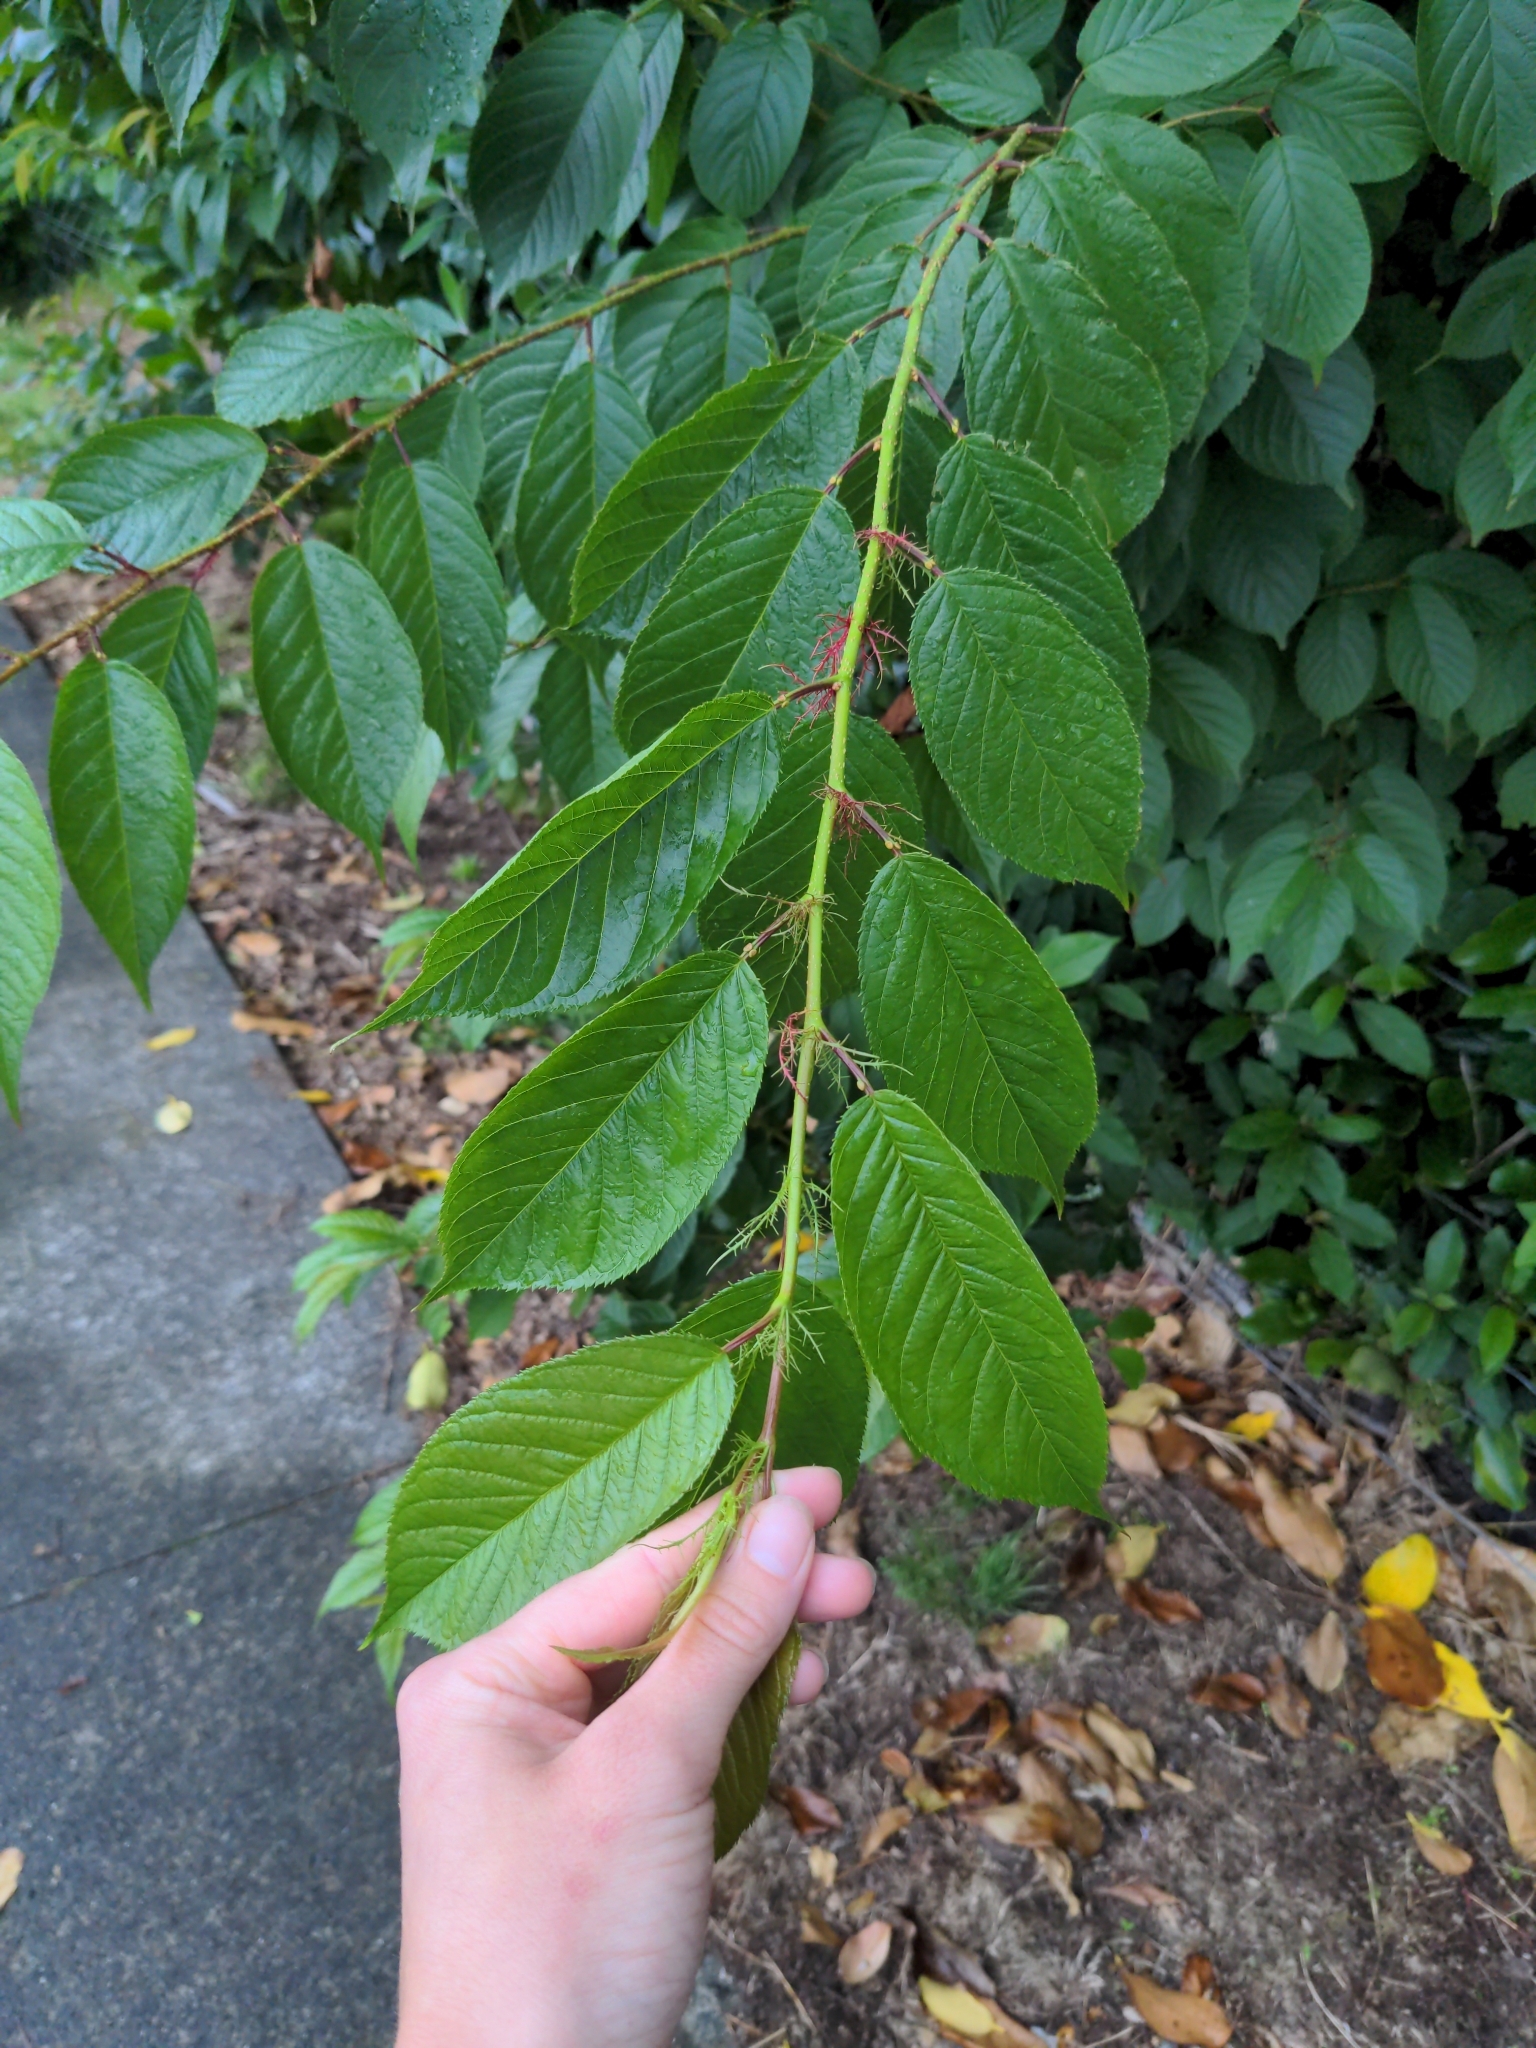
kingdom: Plantae
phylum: Tracheophyta
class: Magnoliopsida
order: Rosales
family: Rosaceae
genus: Prunus
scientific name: Prunus padus
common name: Bird cherry
